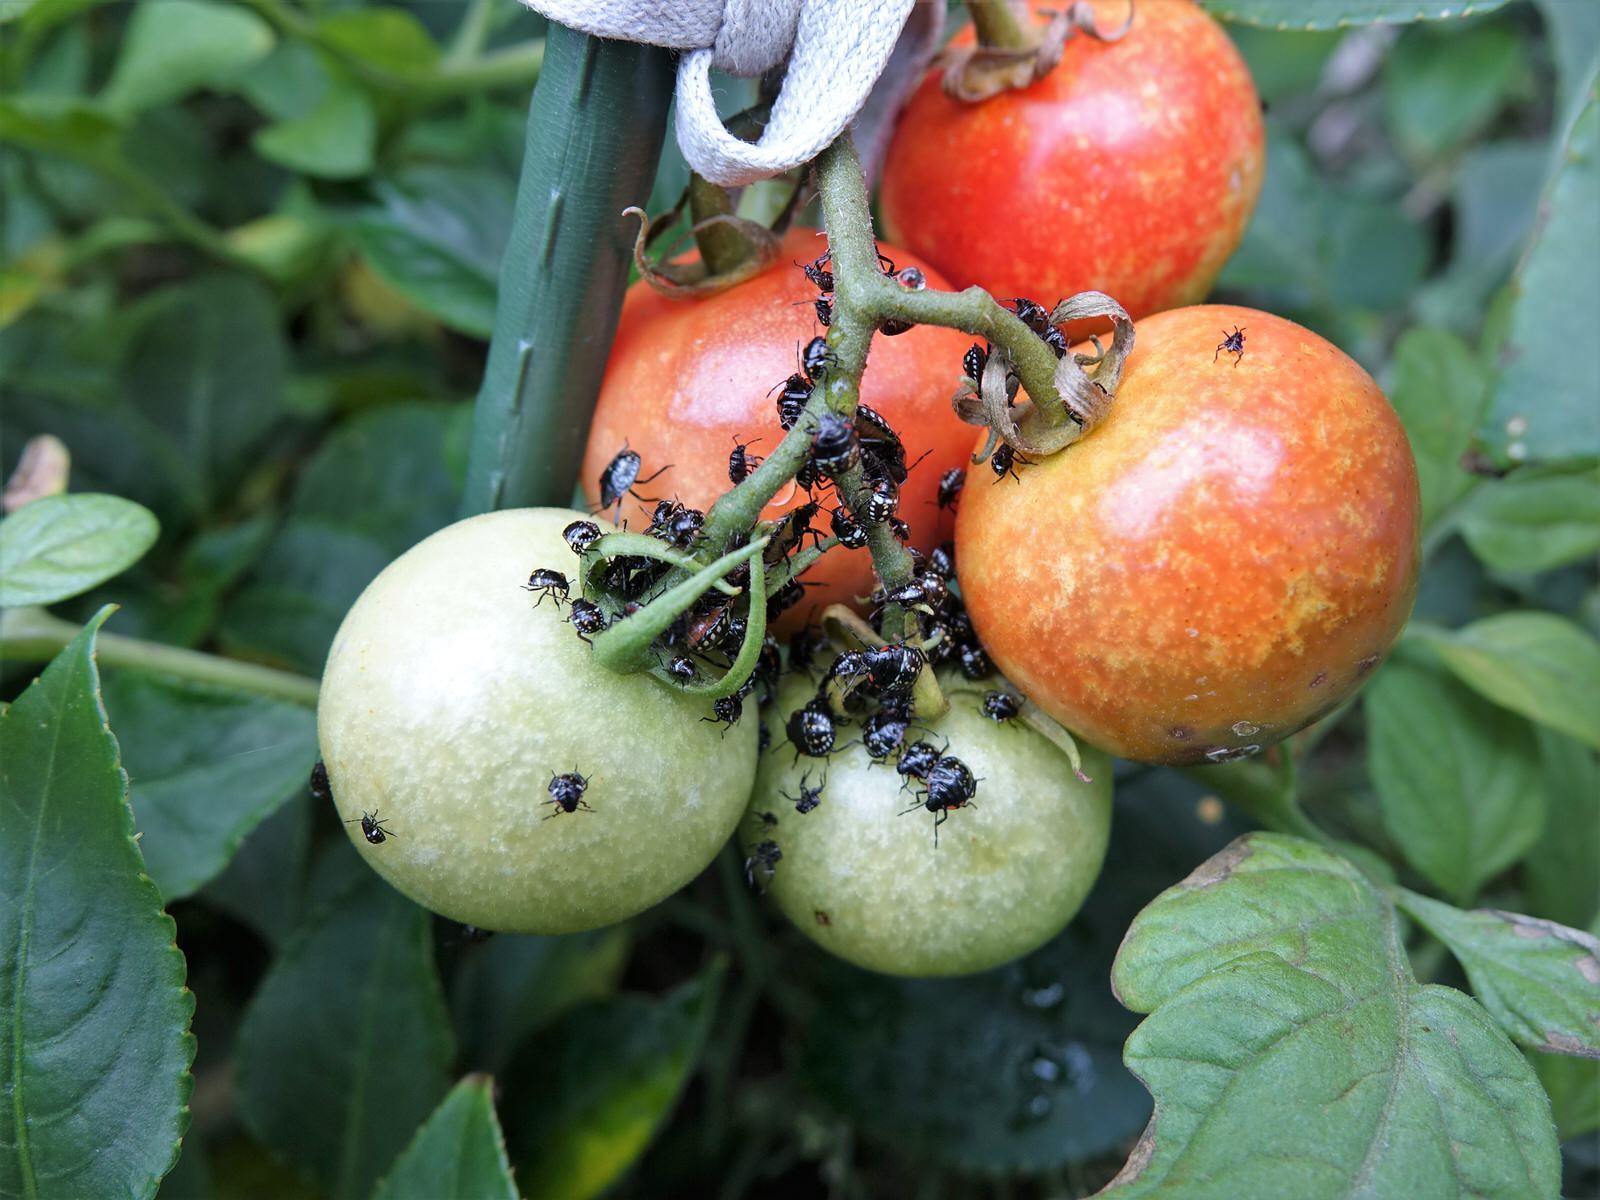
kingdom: Animalia
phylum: Arthropoda
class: Insecta
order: Hemiptera
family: Pentatomidae
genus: Nezara
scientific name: Nezara viridula
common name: Southern green stink bug
